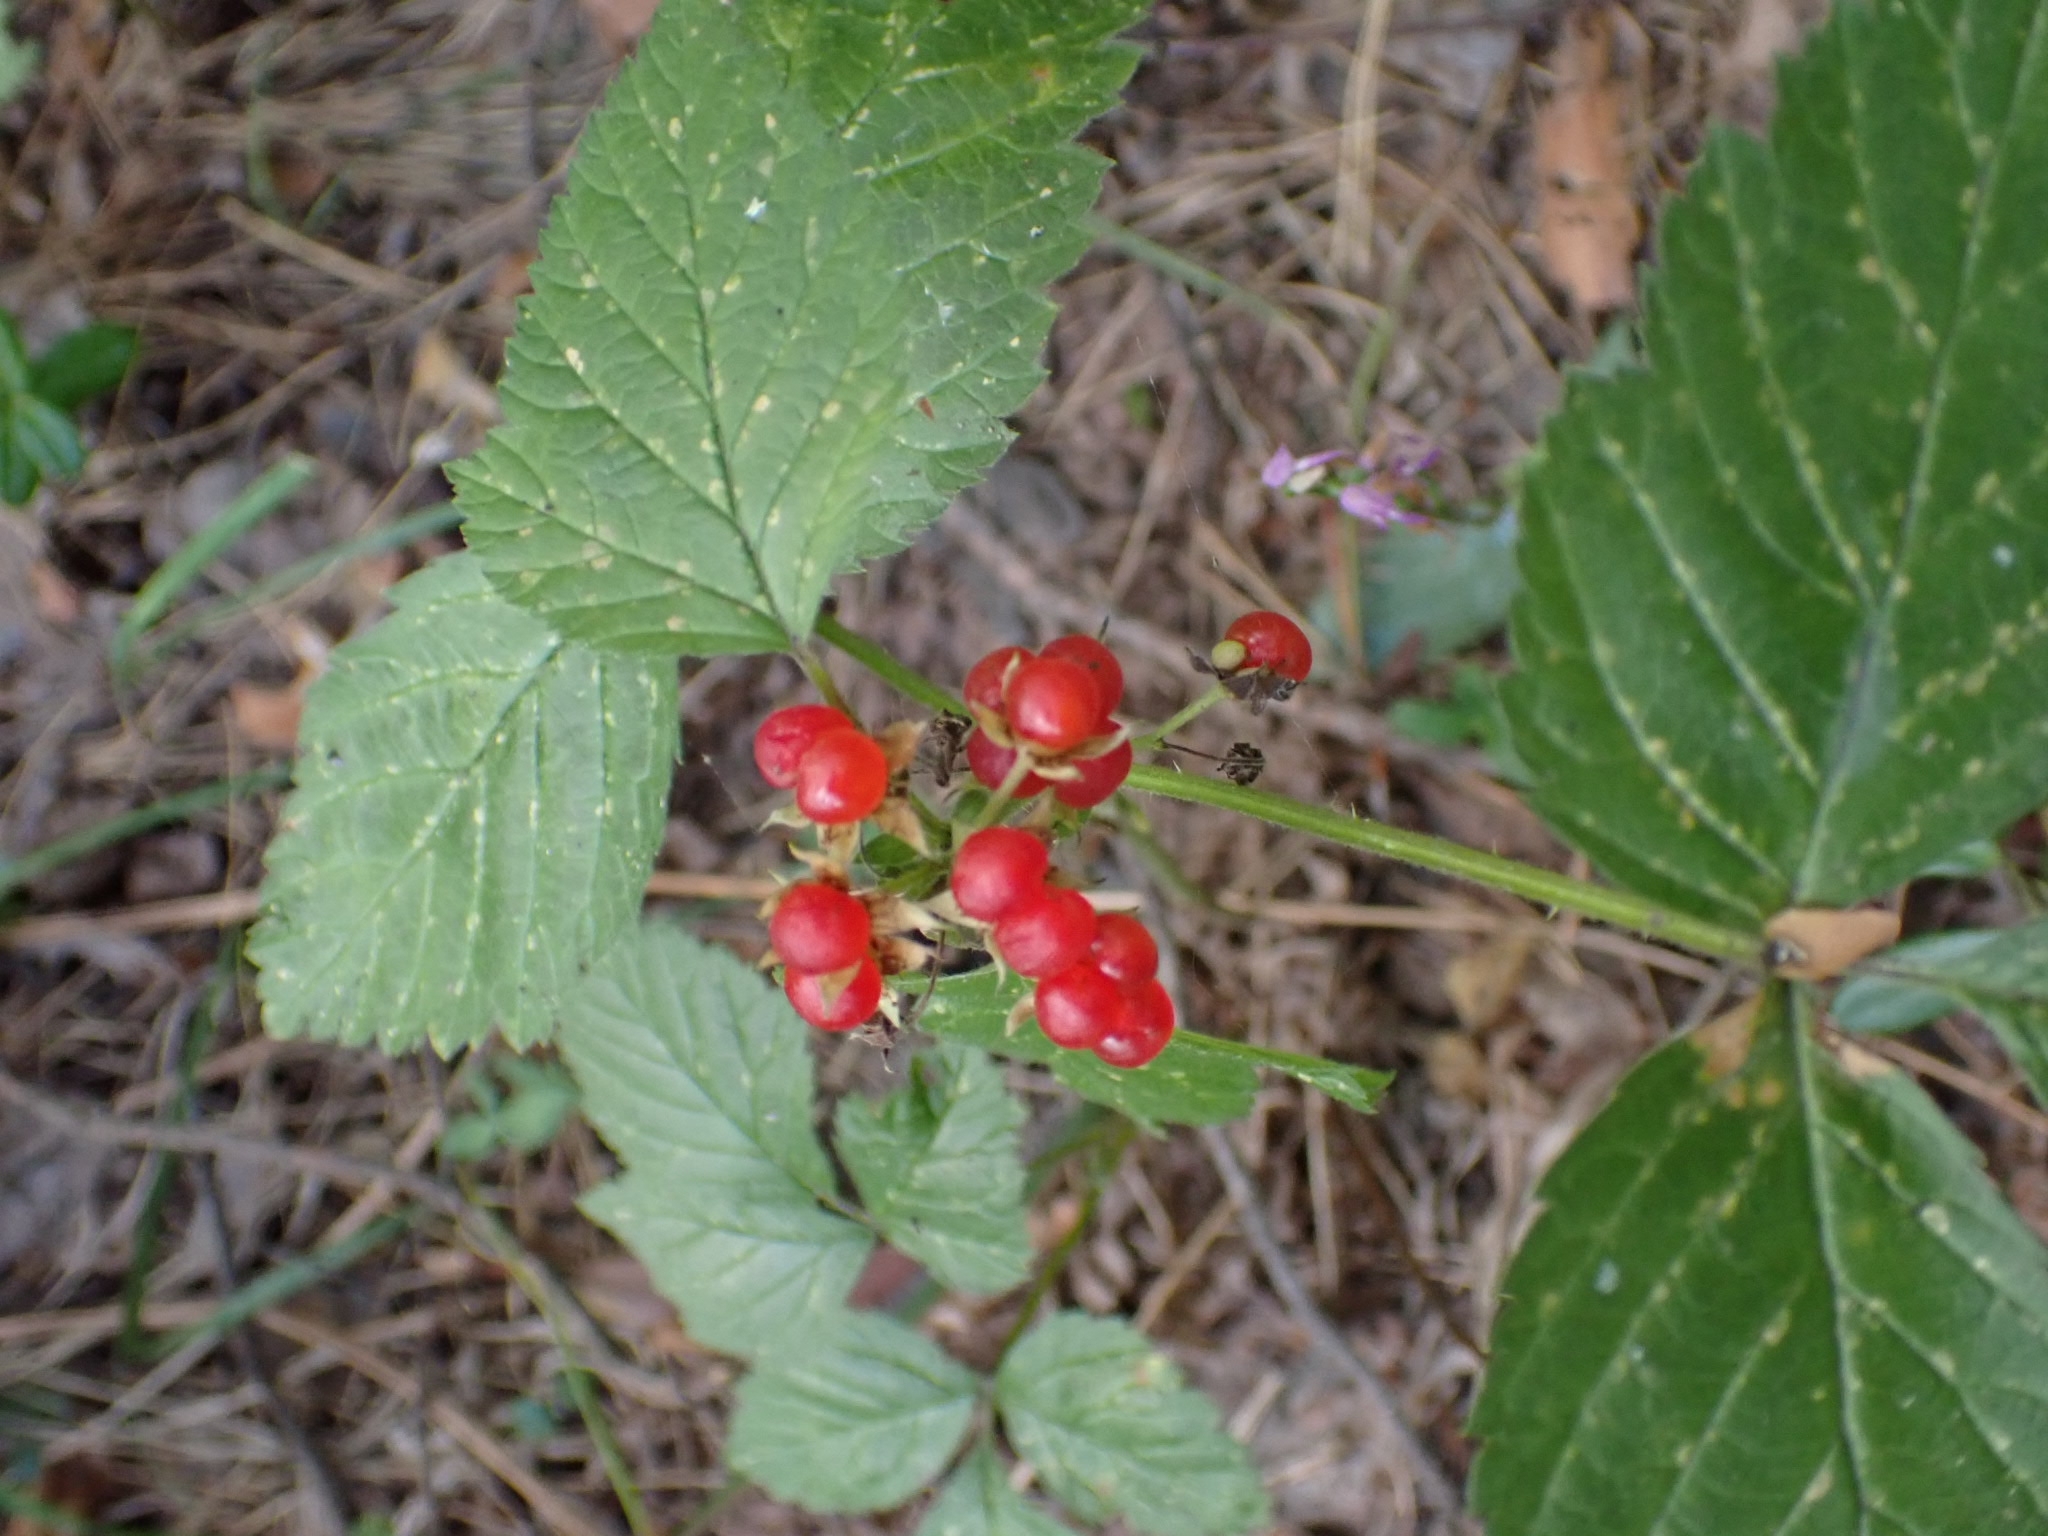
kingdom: Plantae
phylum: Tracheophyta
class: Magnoliopsida
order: Rosales
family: Rosaceae
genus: Rubus
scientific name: Rubus saxatilis
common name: Stone bramble
